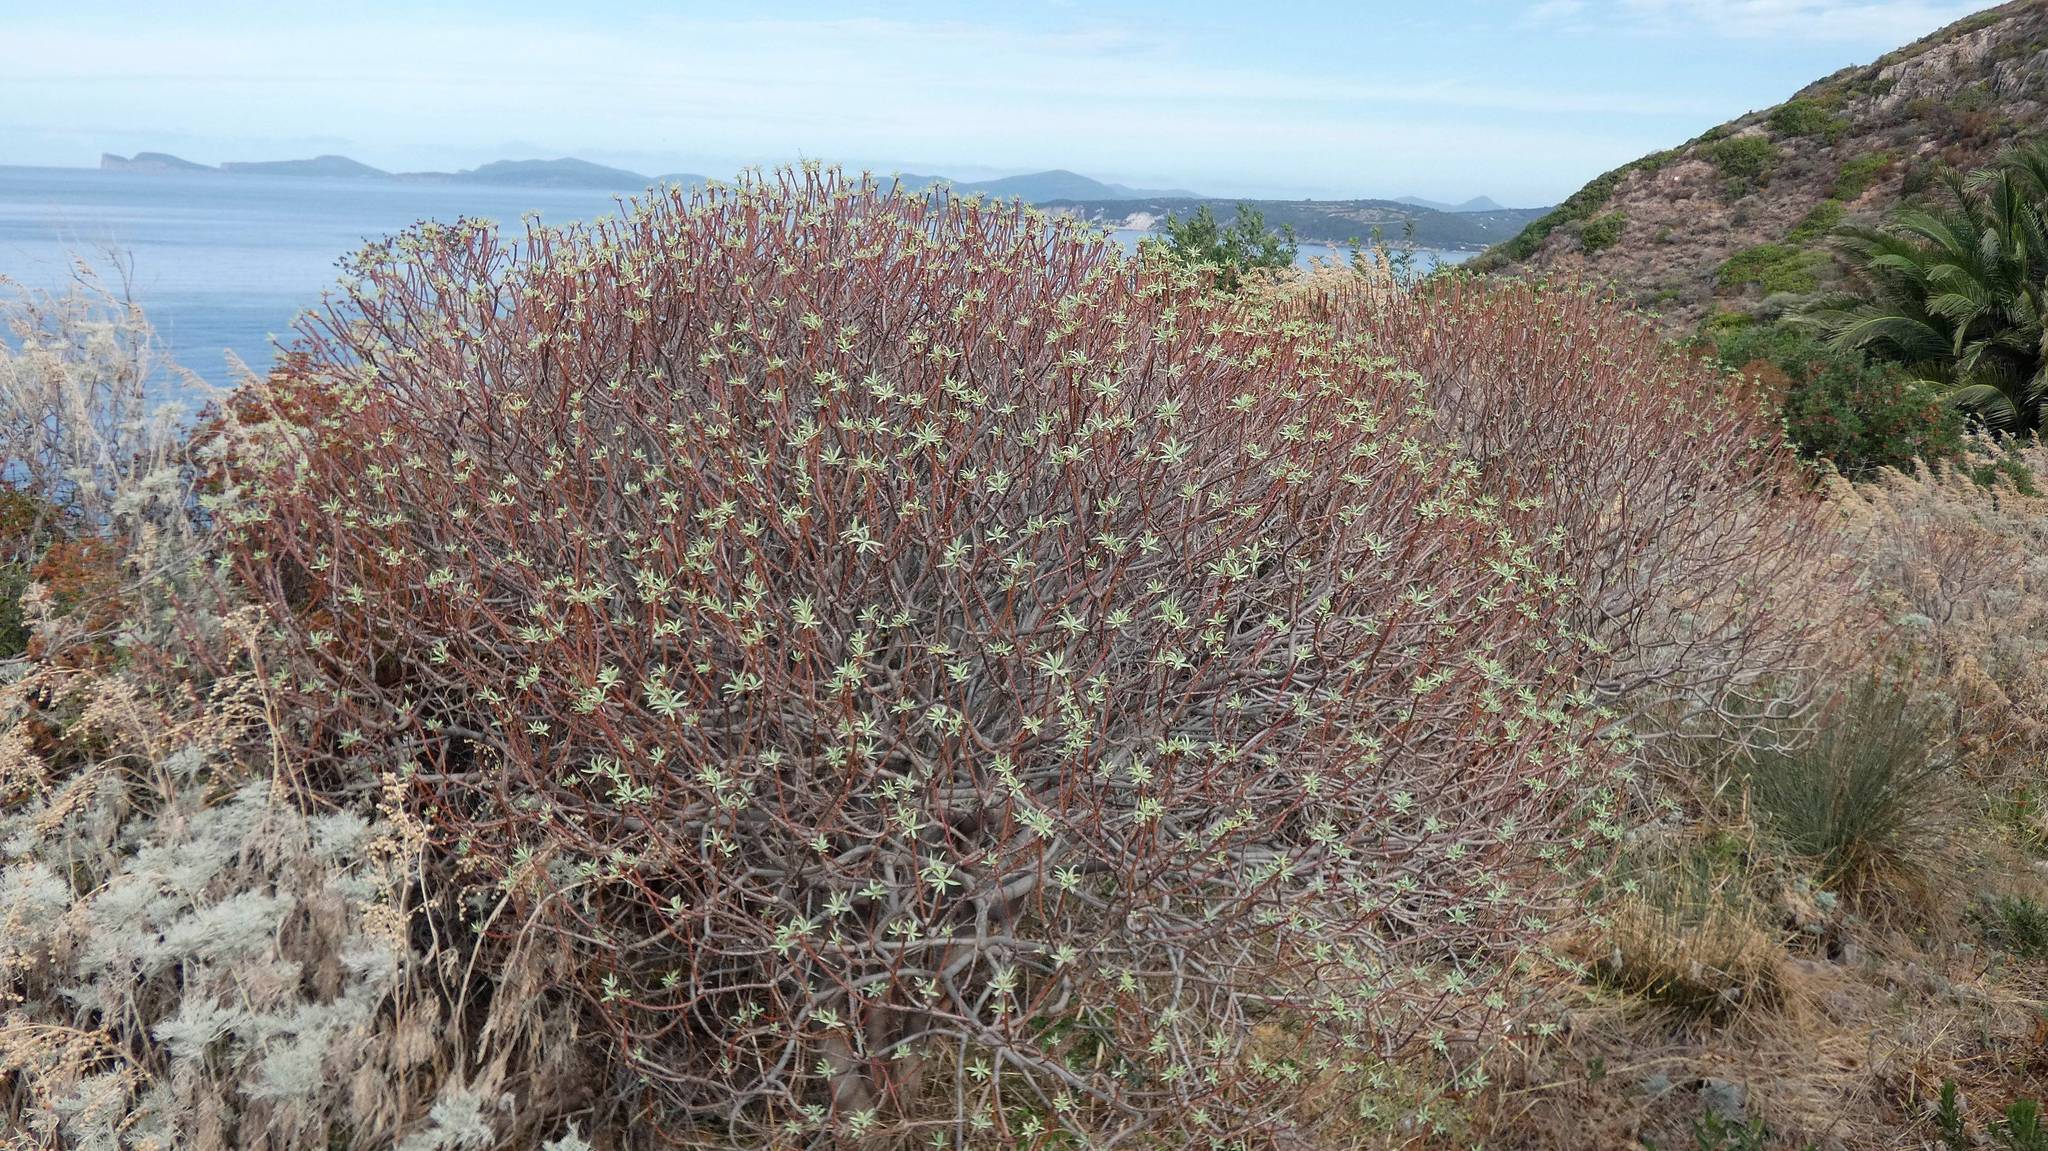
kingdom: Plantae
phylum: Tracheophyta
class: Magnoliopsida
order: Malpighiales
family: Euphorbiaceae
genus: Euphorbia
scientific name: Euphorbia dendroides
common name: Tree spurge
